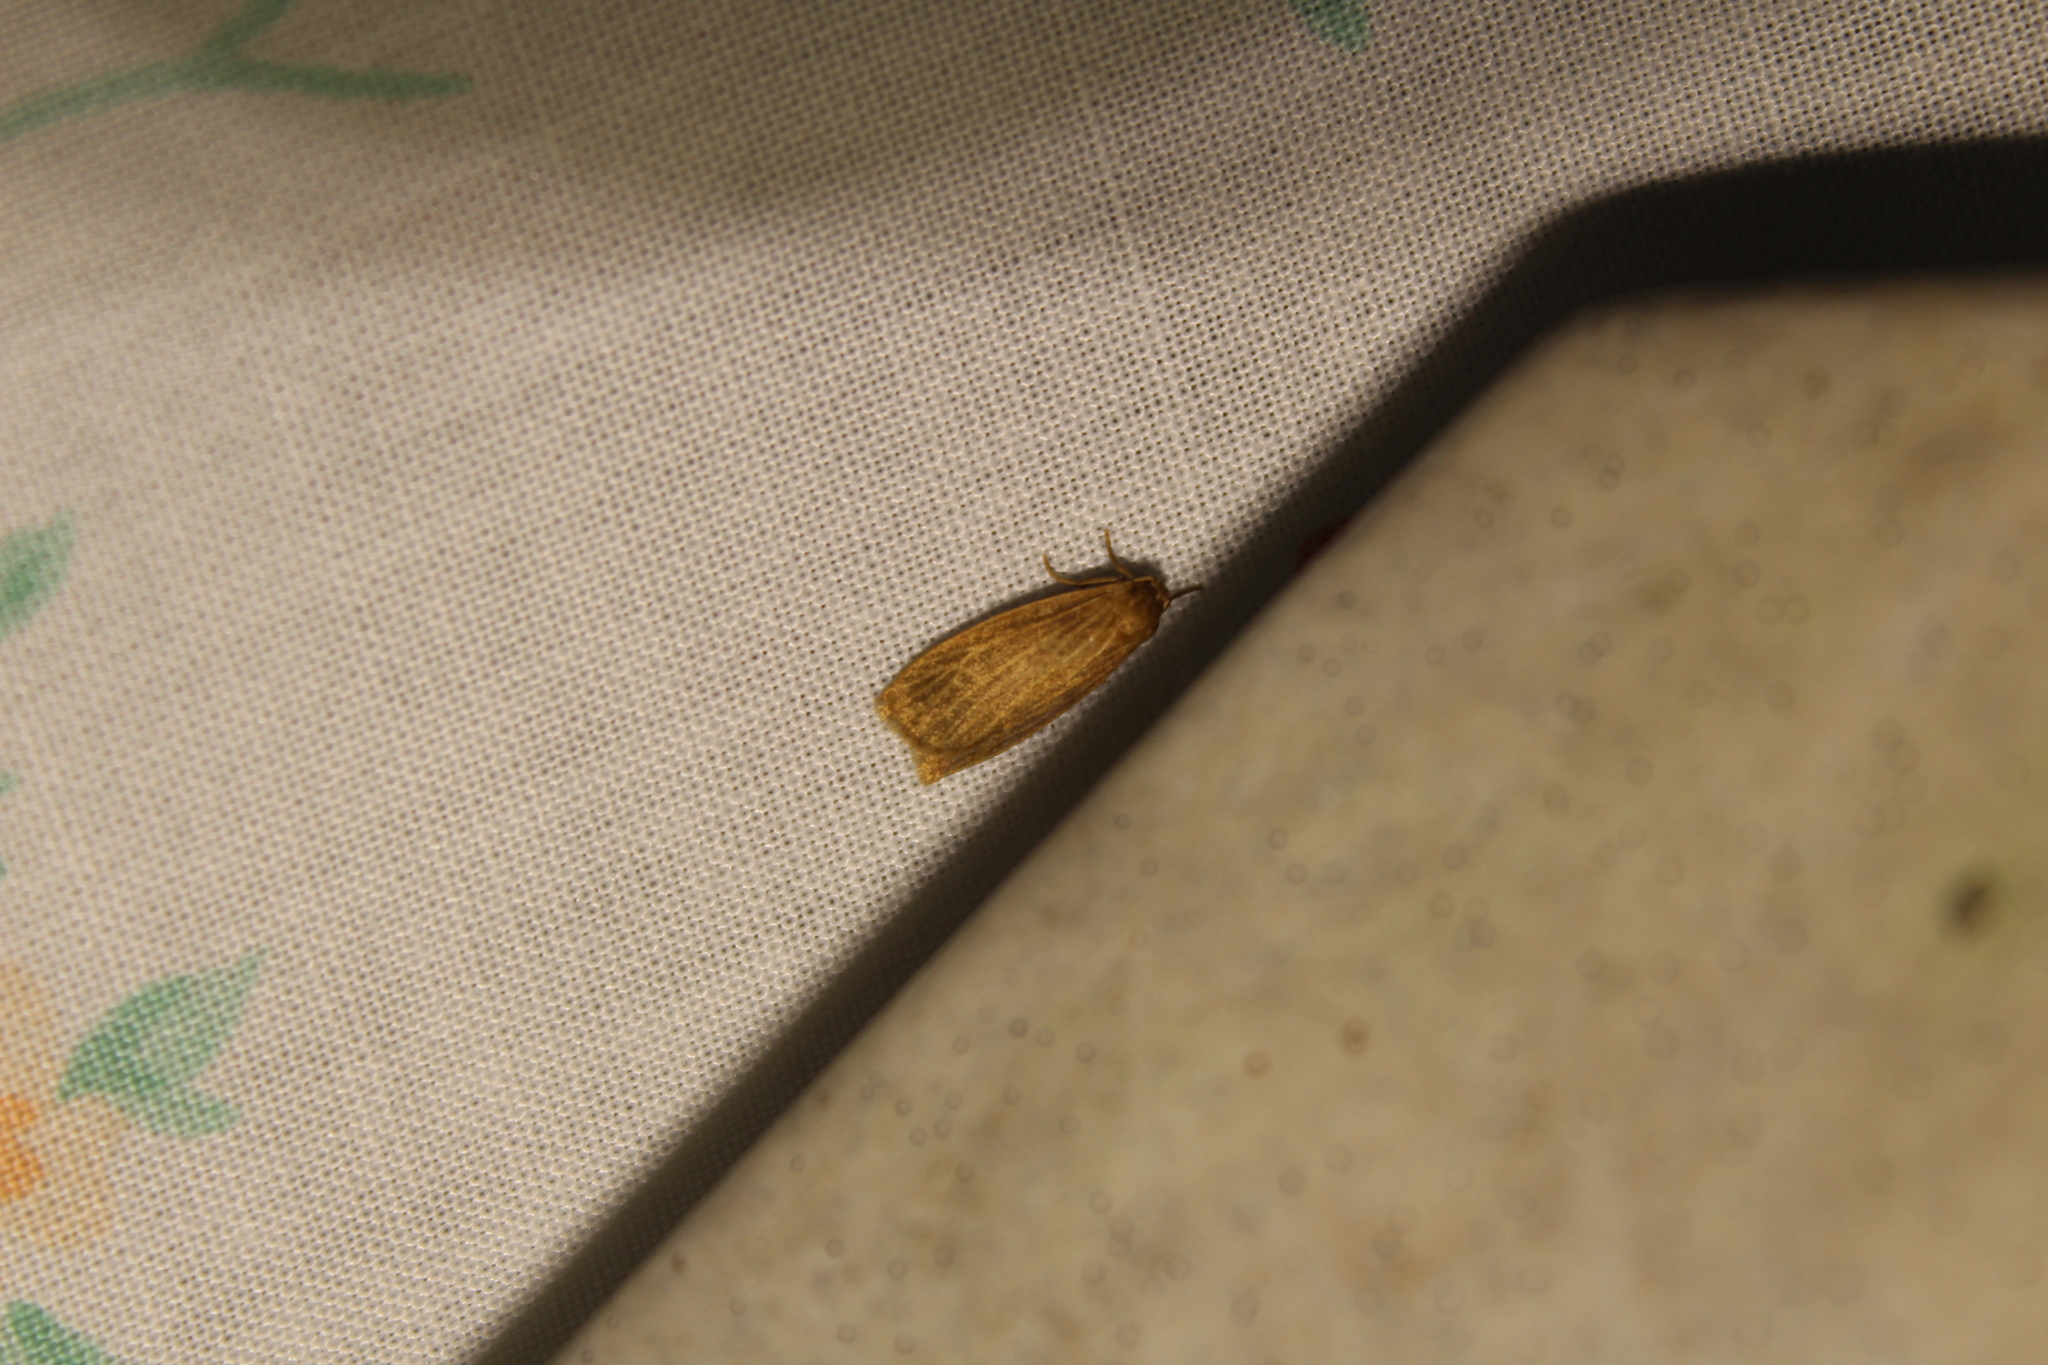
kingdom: Animalia
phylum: Arthropoda
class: Insecta
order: Lepidoptera
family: Erebidae
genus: Crambidia
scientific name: Crambidia pallida
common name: Pale lichen moth
